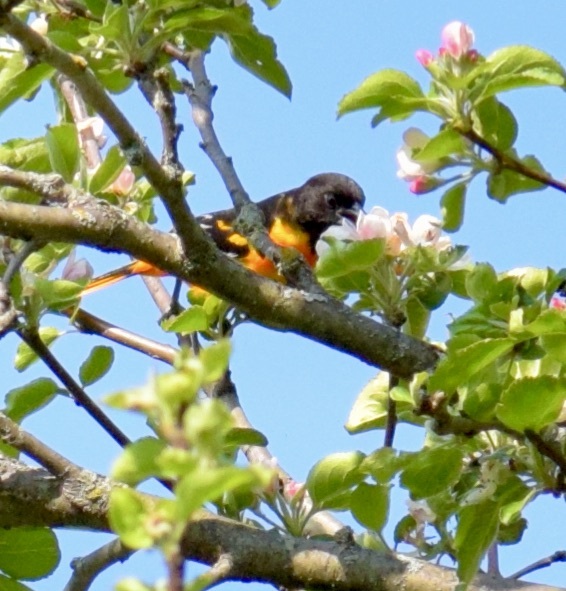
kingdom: Animalia
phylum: Chordata
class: Aves
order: Passeriformes
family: Icteridae
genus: Icterus
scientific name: Icterus galbula
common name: Baltimore oriole
